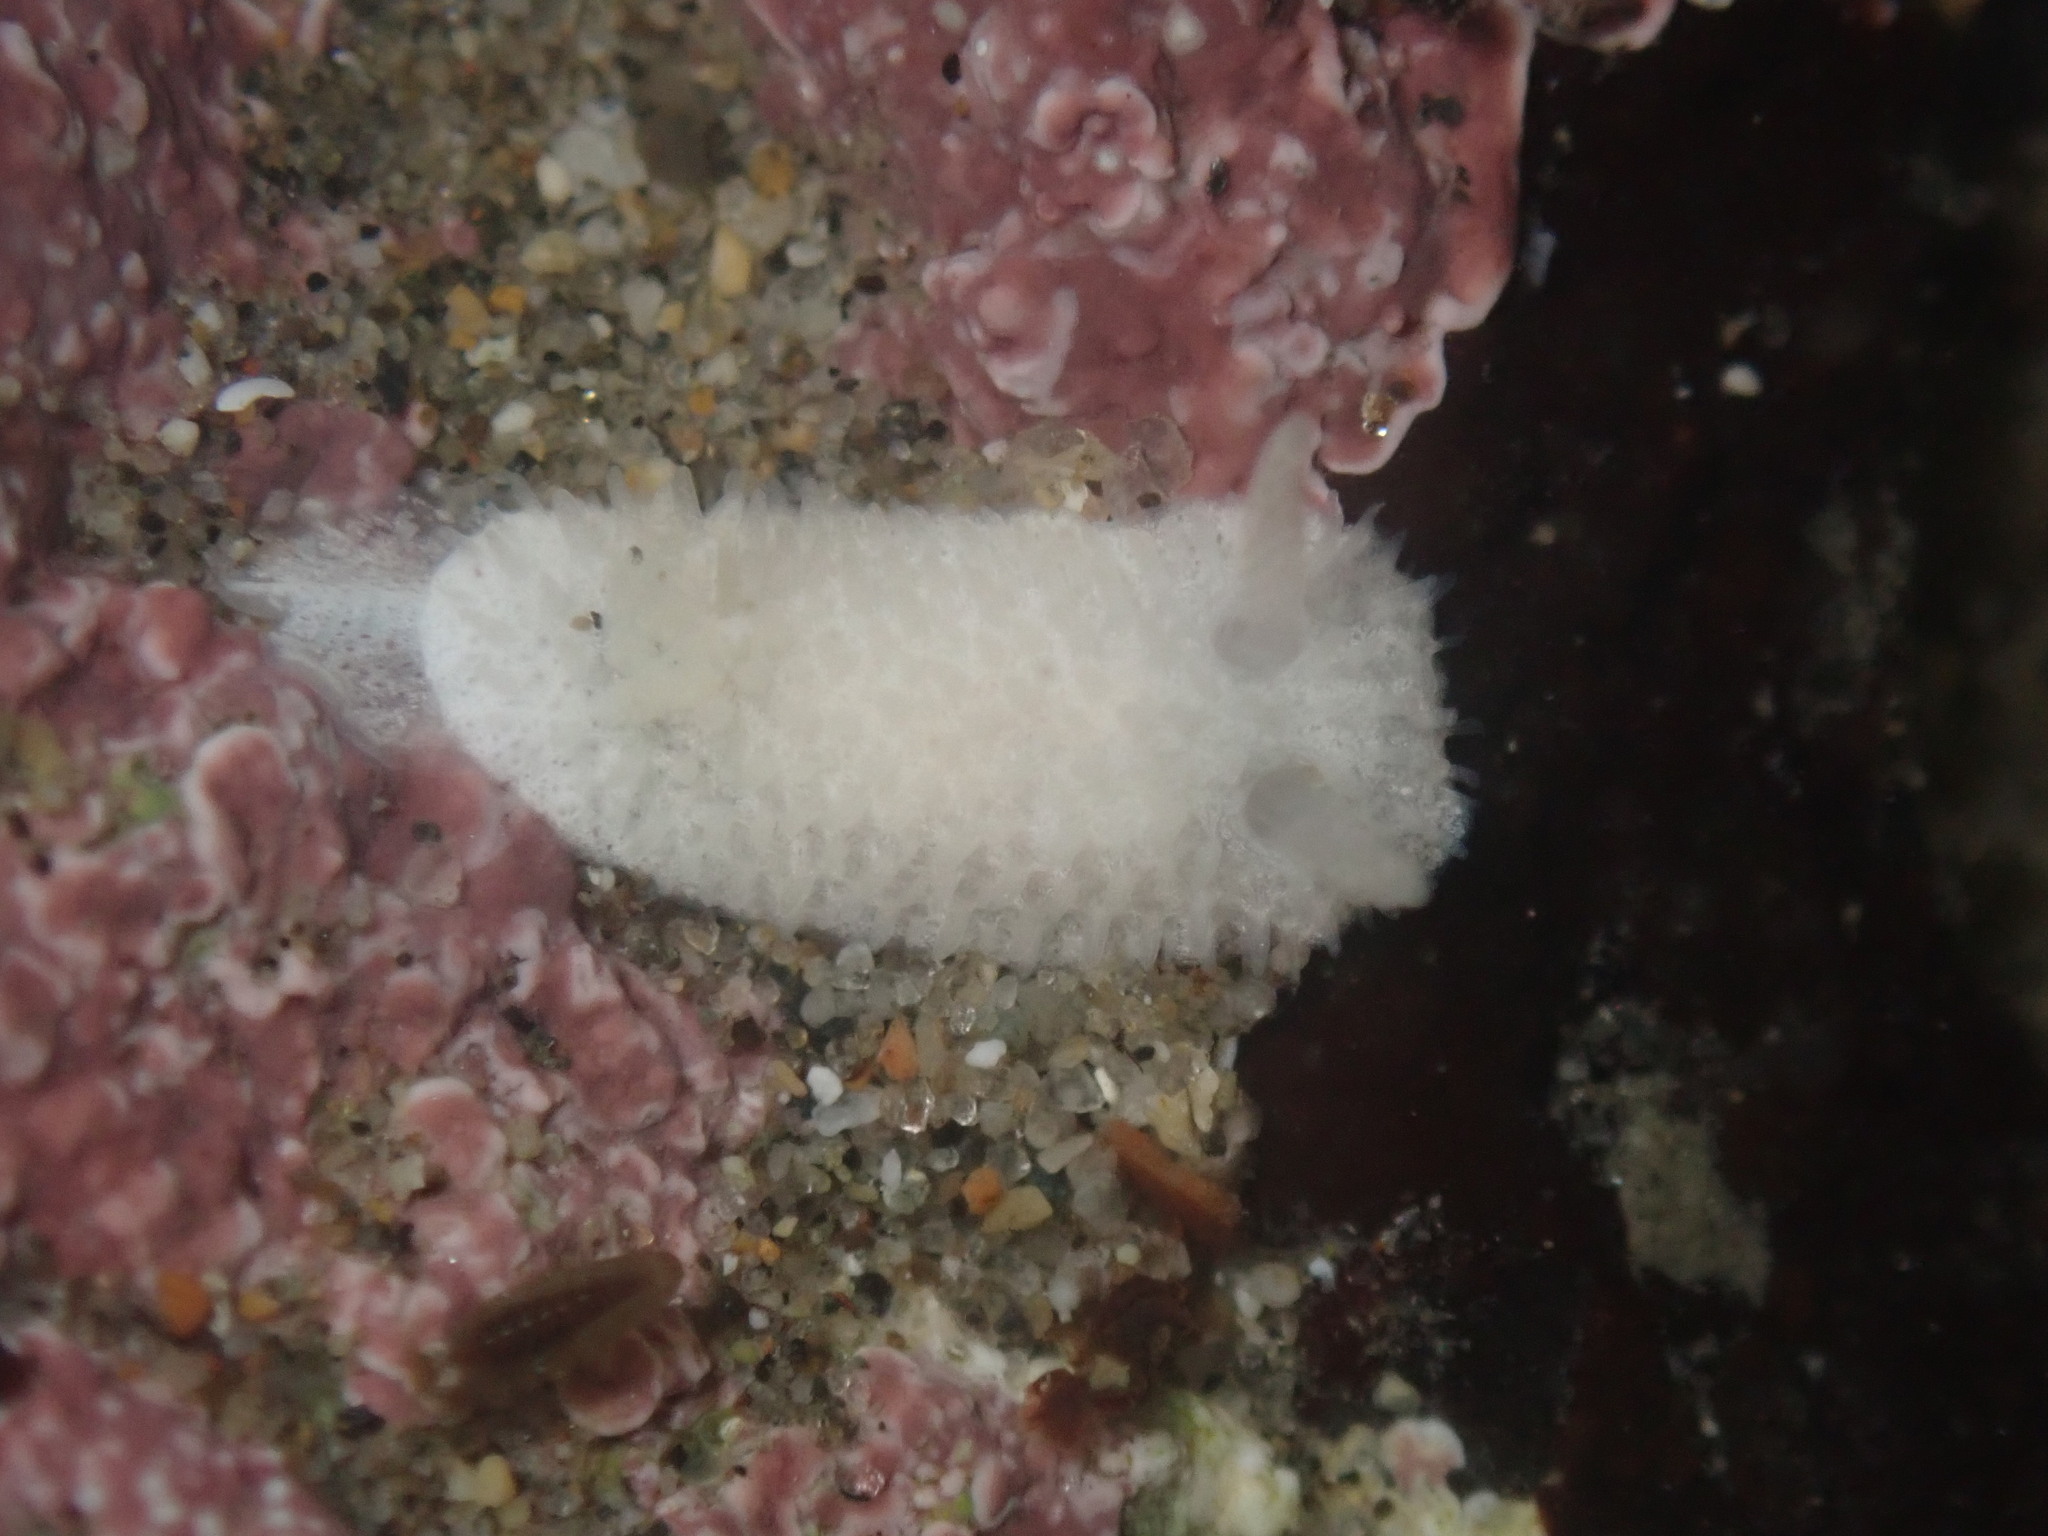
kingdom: Animalia
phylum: Mollusca
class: Gastropoda
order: Nudibranchia
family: Calycidorididae
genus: Diaphorodoris
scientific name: Diaphorodoris lirulatocauda
